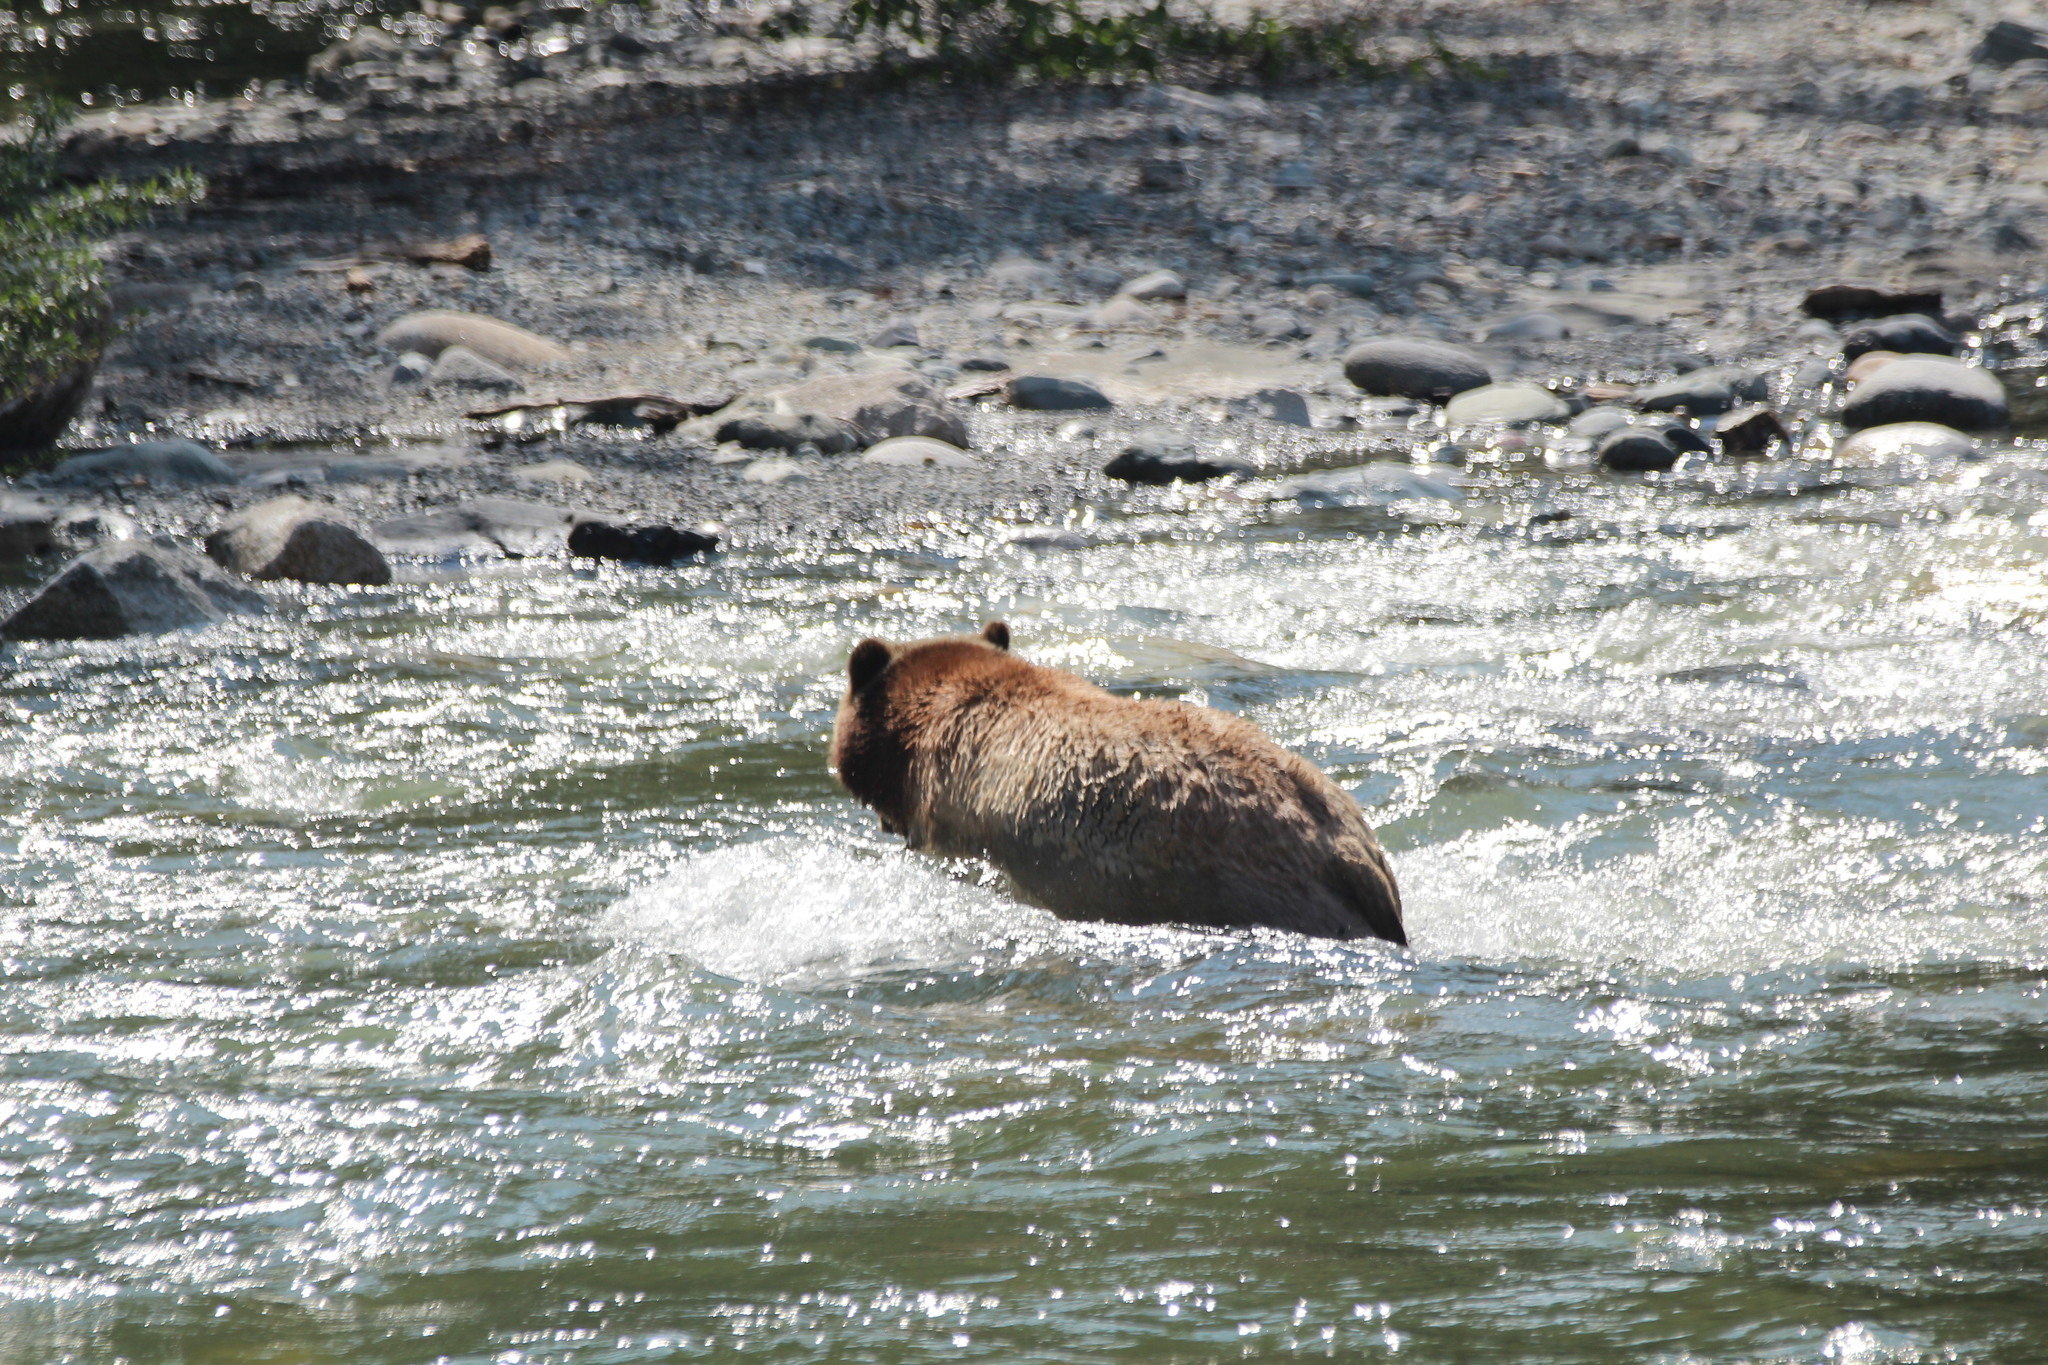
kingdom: Animalia
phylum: Chordata
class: Mammalia
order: Carnivora
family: Ursidae
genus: Ursus
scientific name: Ursus arctos
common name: Brown bear
